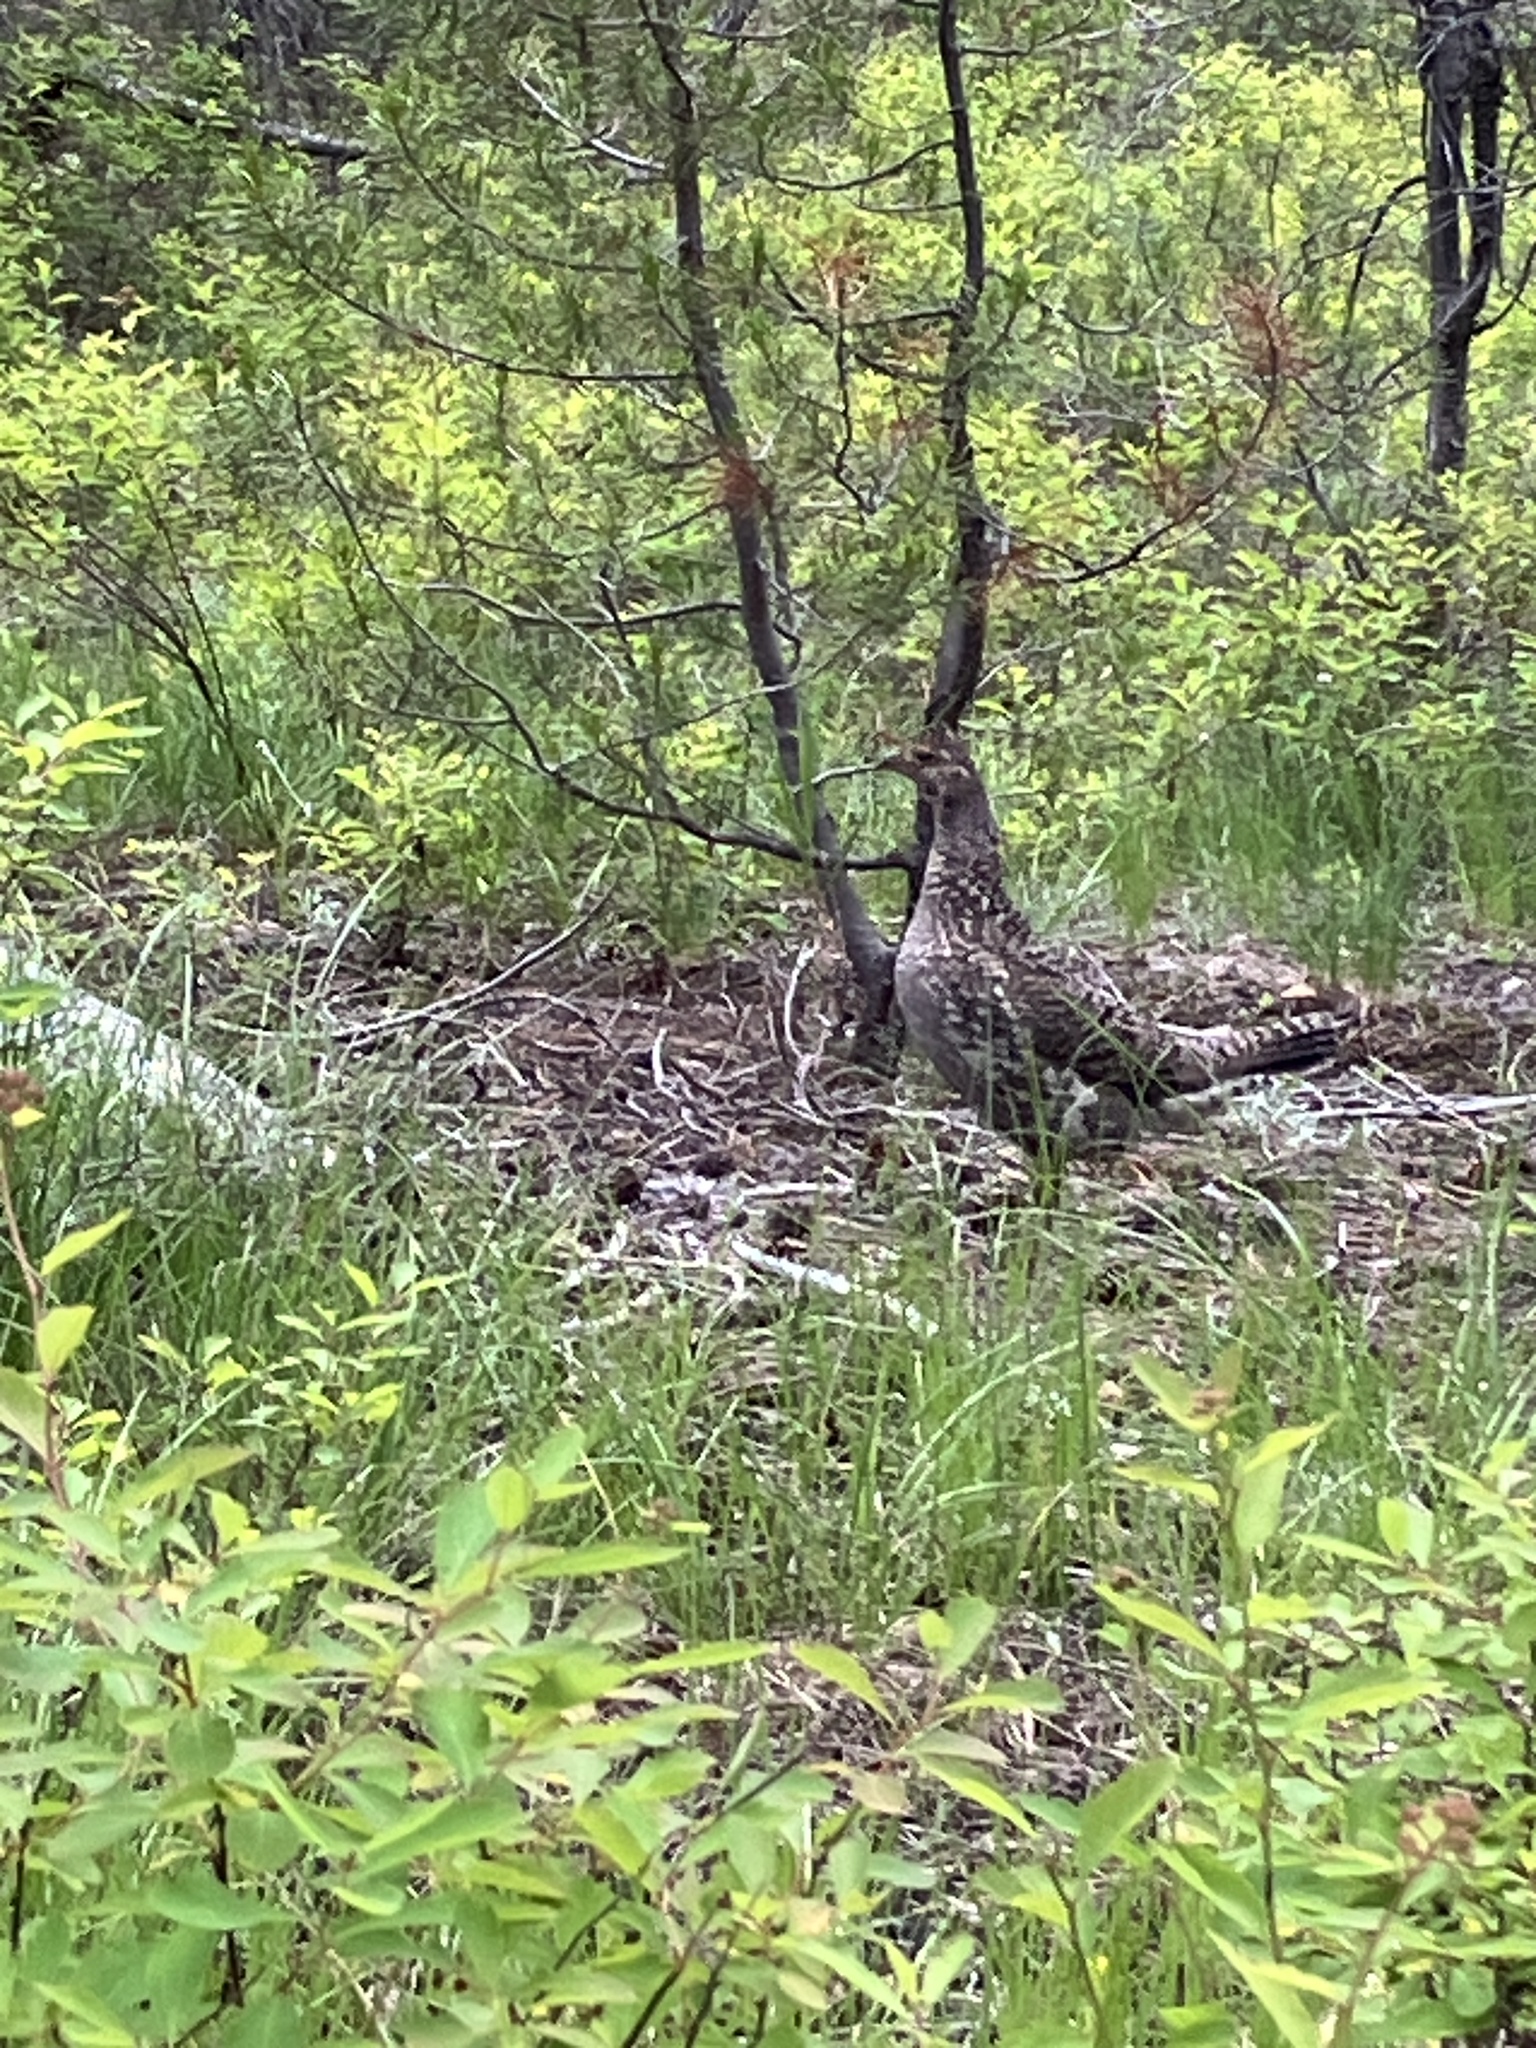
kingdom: Animalia
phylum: Chordata
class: Aves
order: Galliformes
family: Phasianidae
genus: Dendragapus
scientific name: Dendragapus obscurus
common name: Dusky grouse
